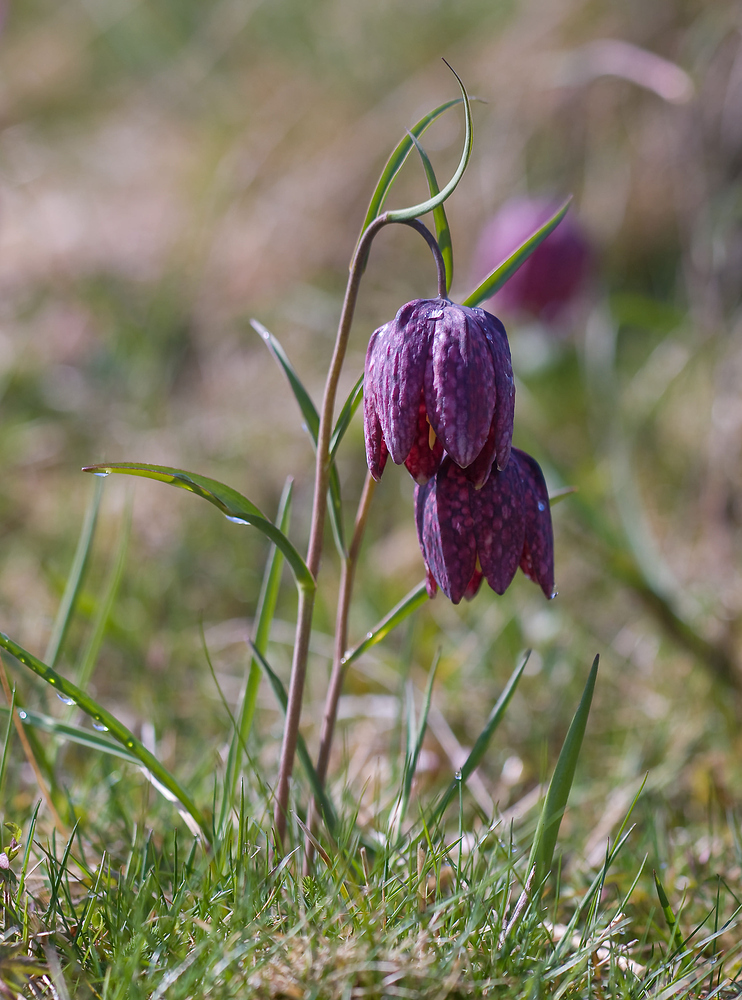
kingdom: Plantae
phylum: Tracheophyta
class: Liliopsida
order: Liliales
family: Liliaceae
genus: Fritillaria
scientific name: Fritillaria meleagris
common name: Fritillary
